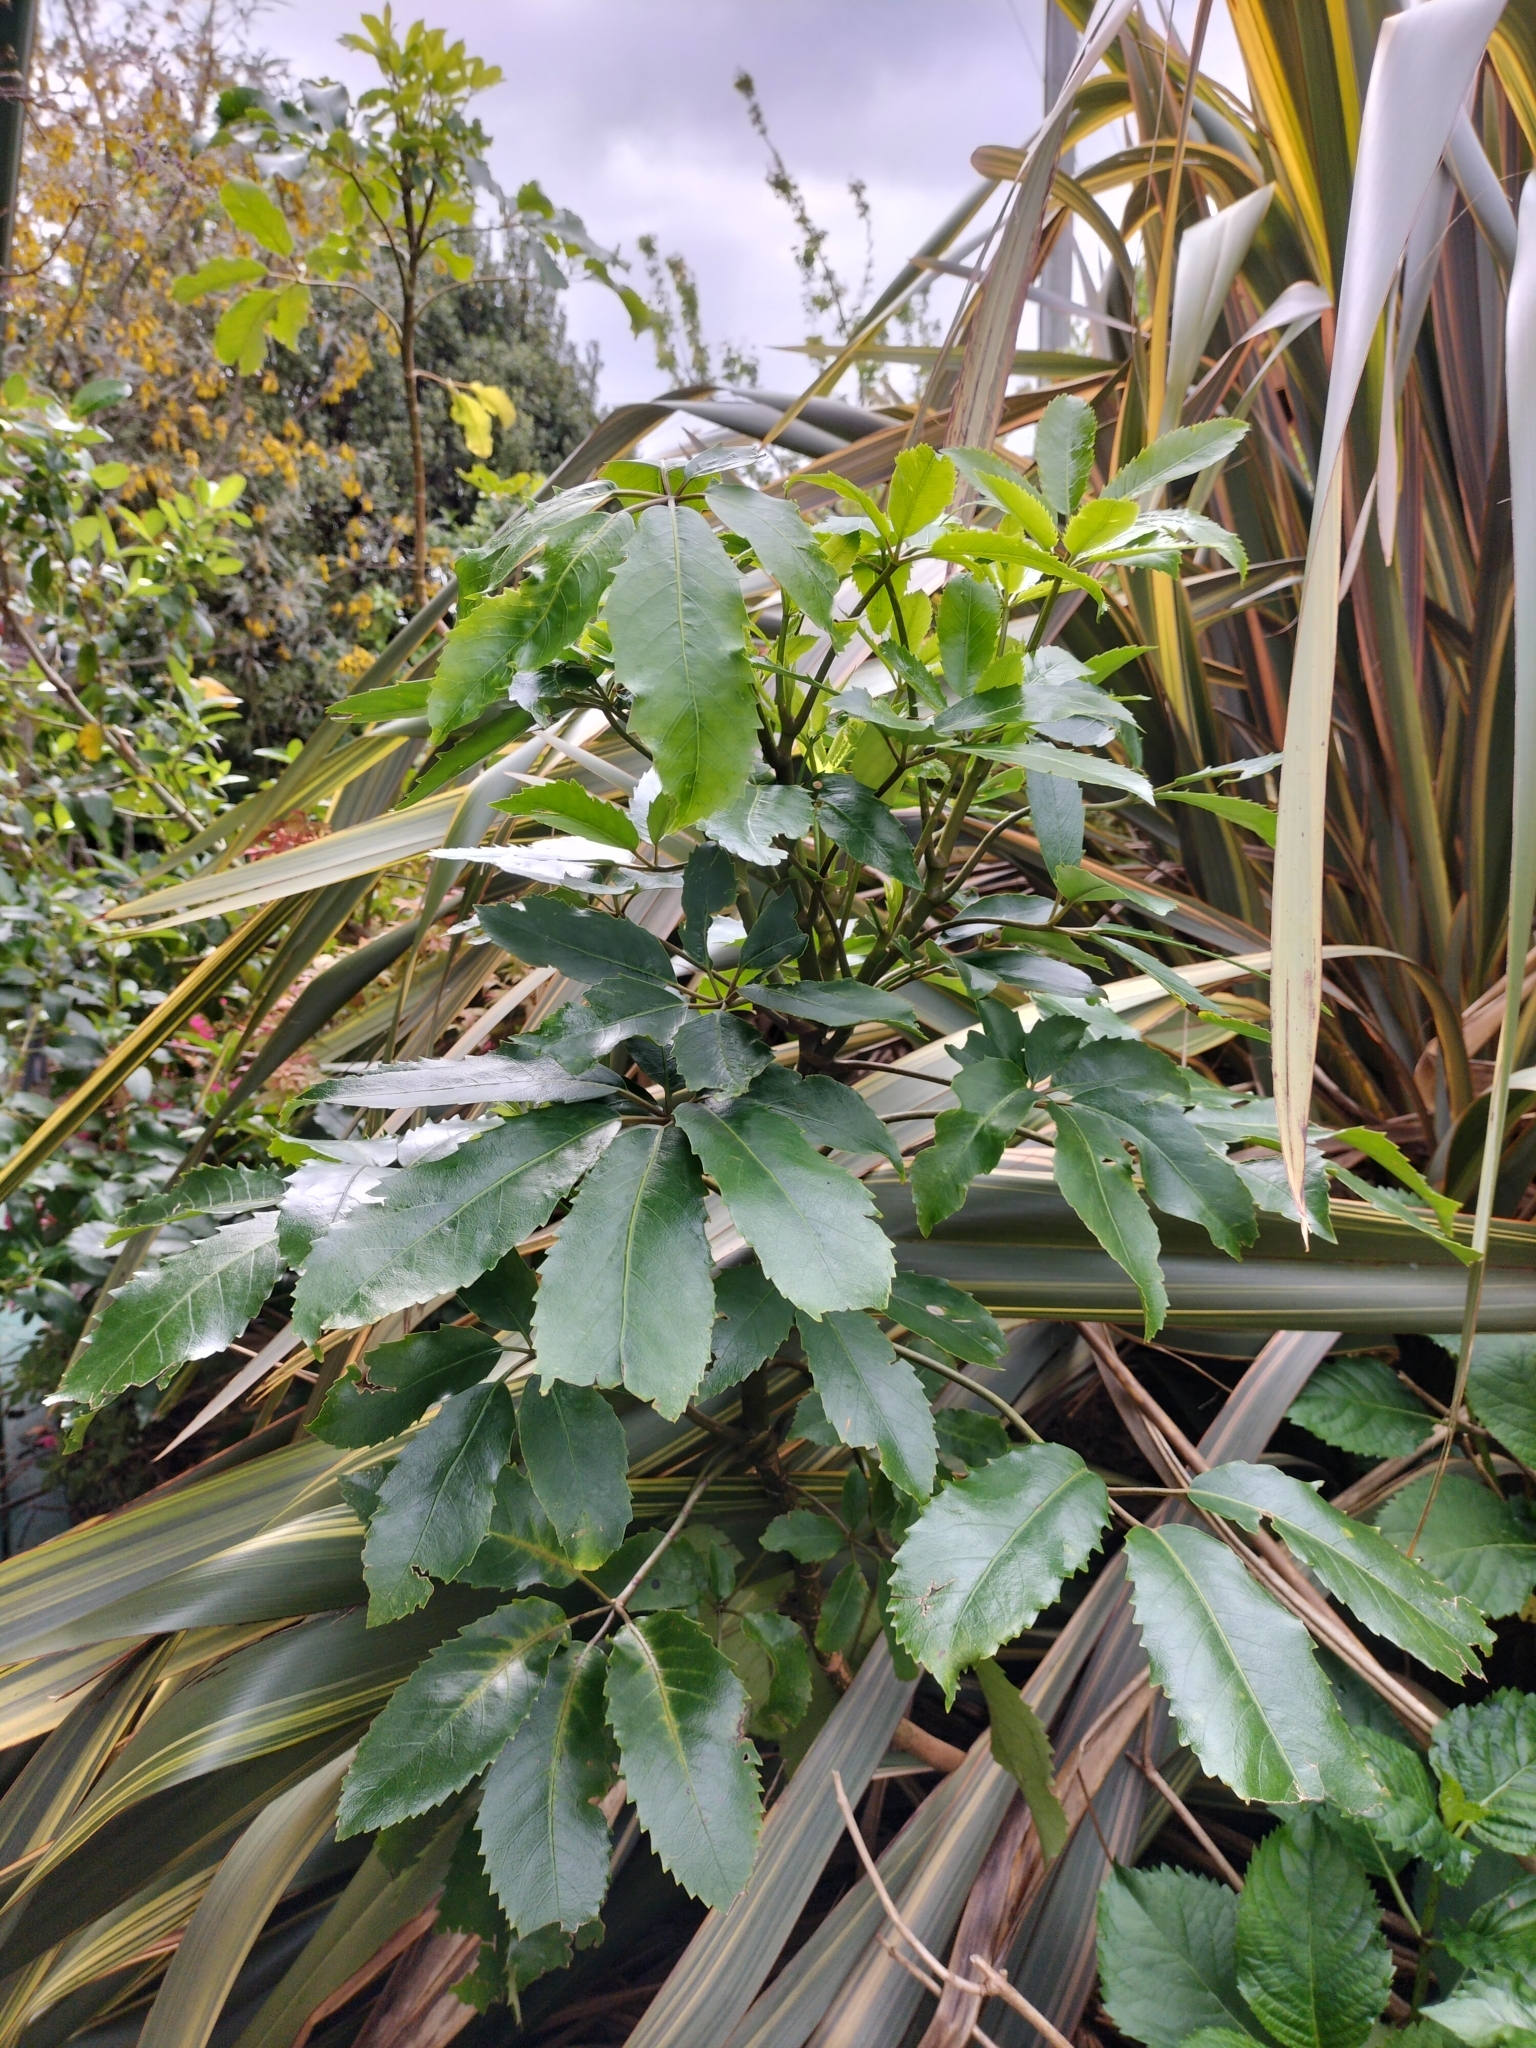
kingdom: Plantae
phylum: Tracheophyta
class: Magnoliopsida
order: Apiales
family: Araliaceae
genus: Neopanax
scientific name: Neopanax arboreus
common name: Five-fingers
